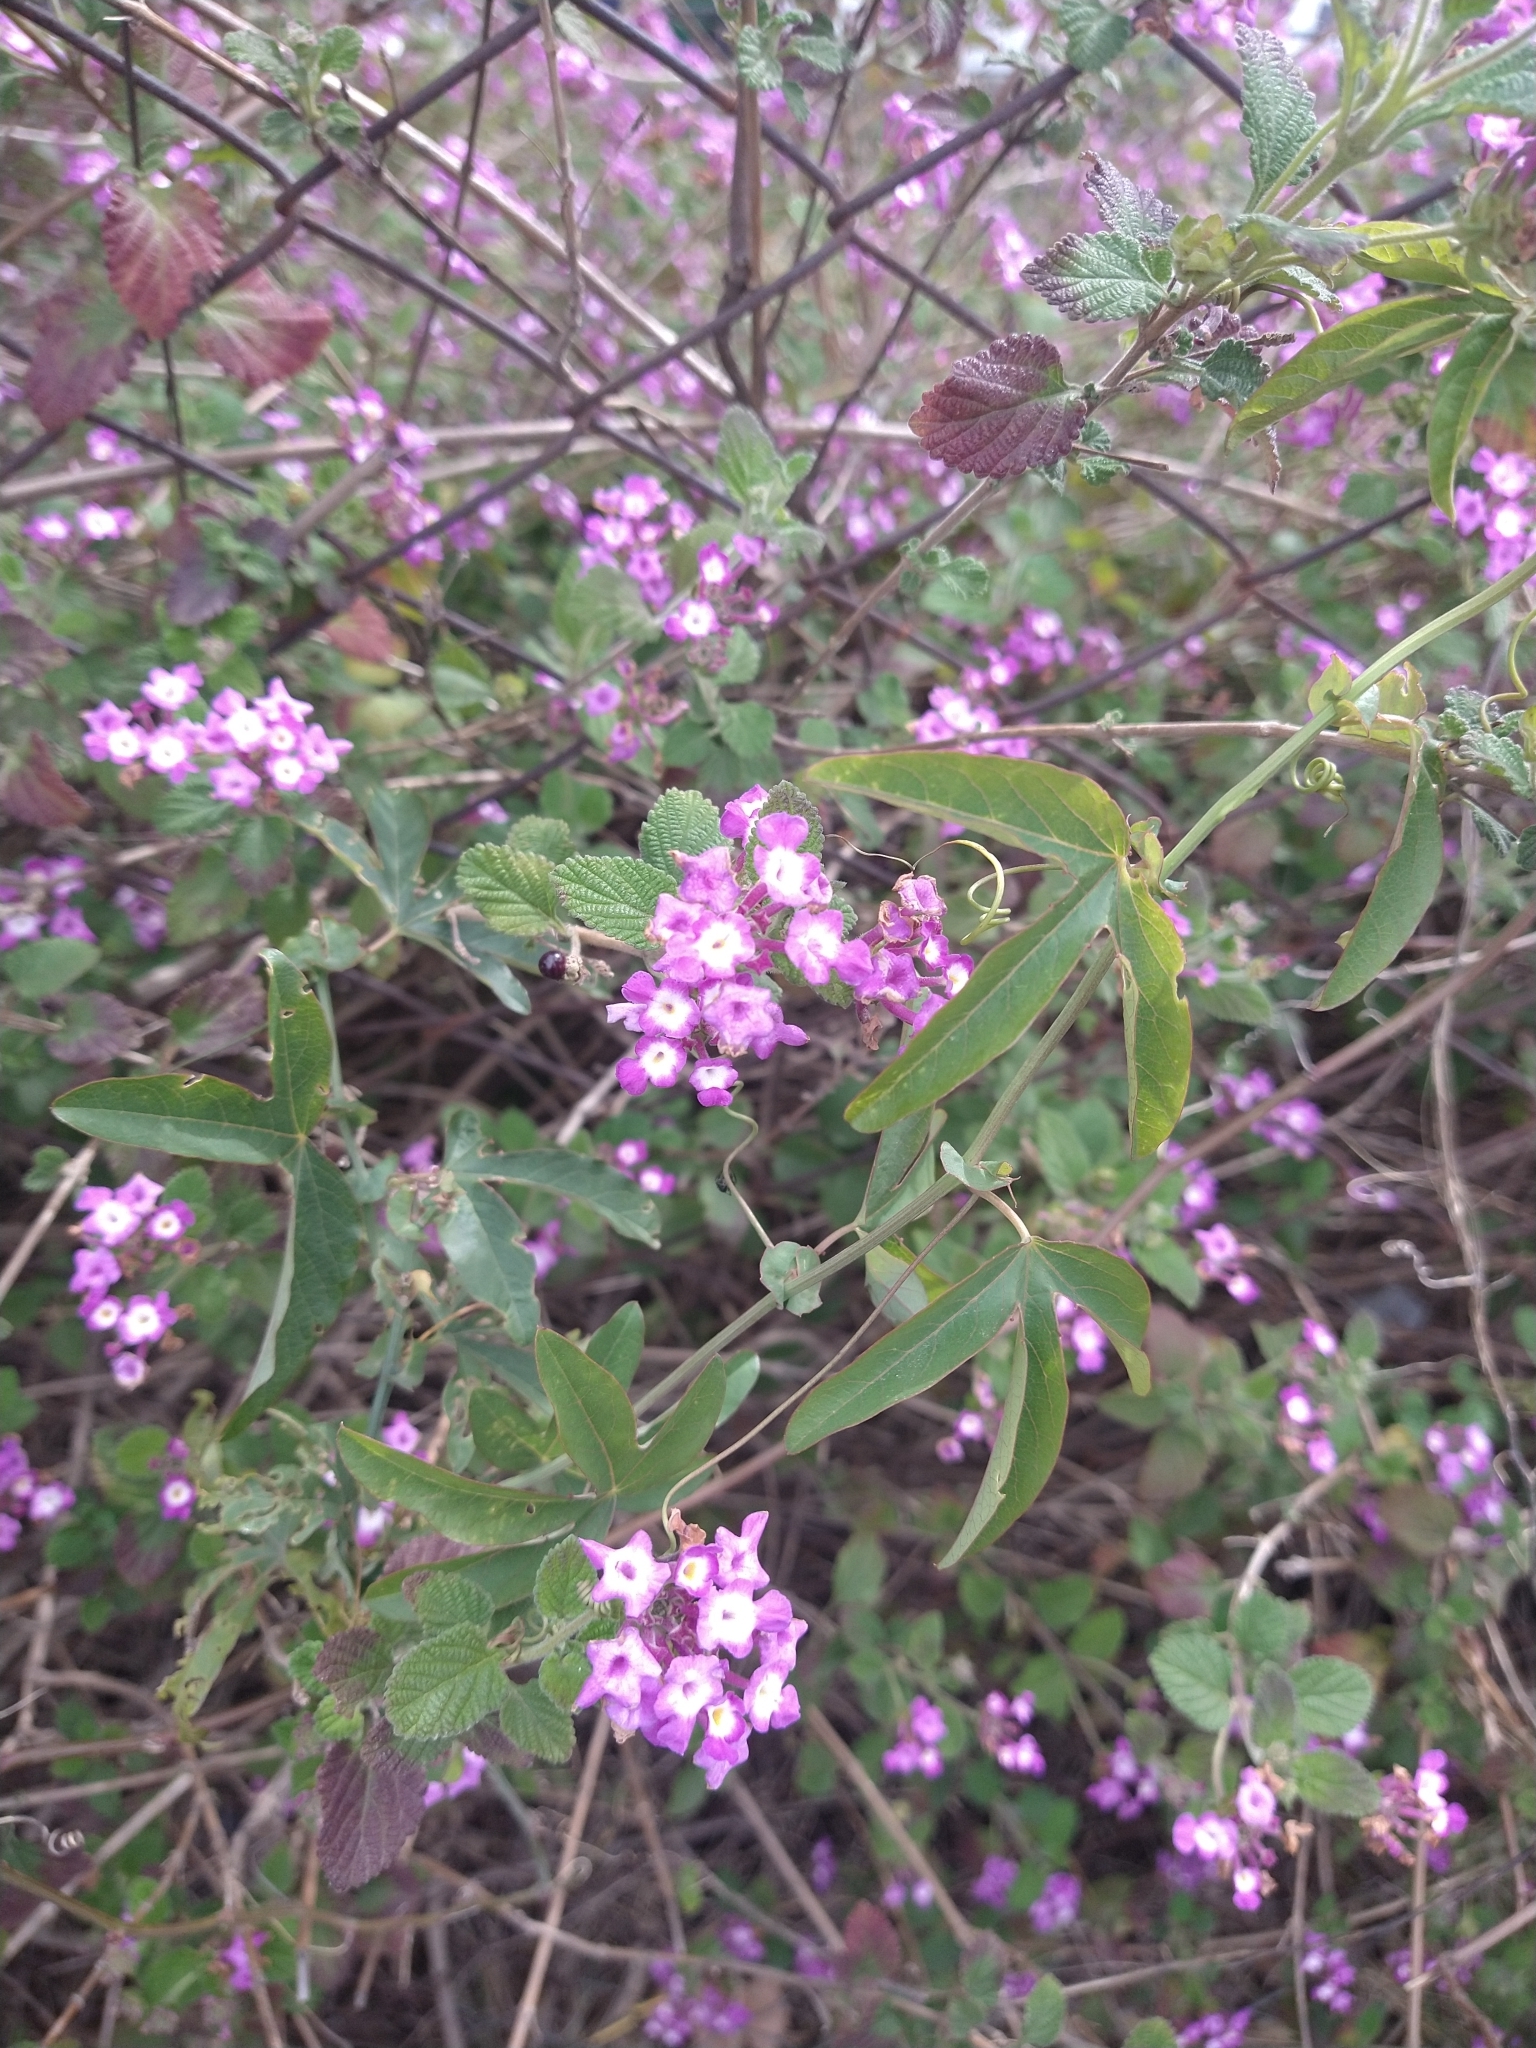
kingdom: Plantae
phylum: Tracheophyta
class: Magnoliopsida
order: Lamiales
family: Verbenaceae
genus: Lantana
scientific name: Lantana megapotamica
